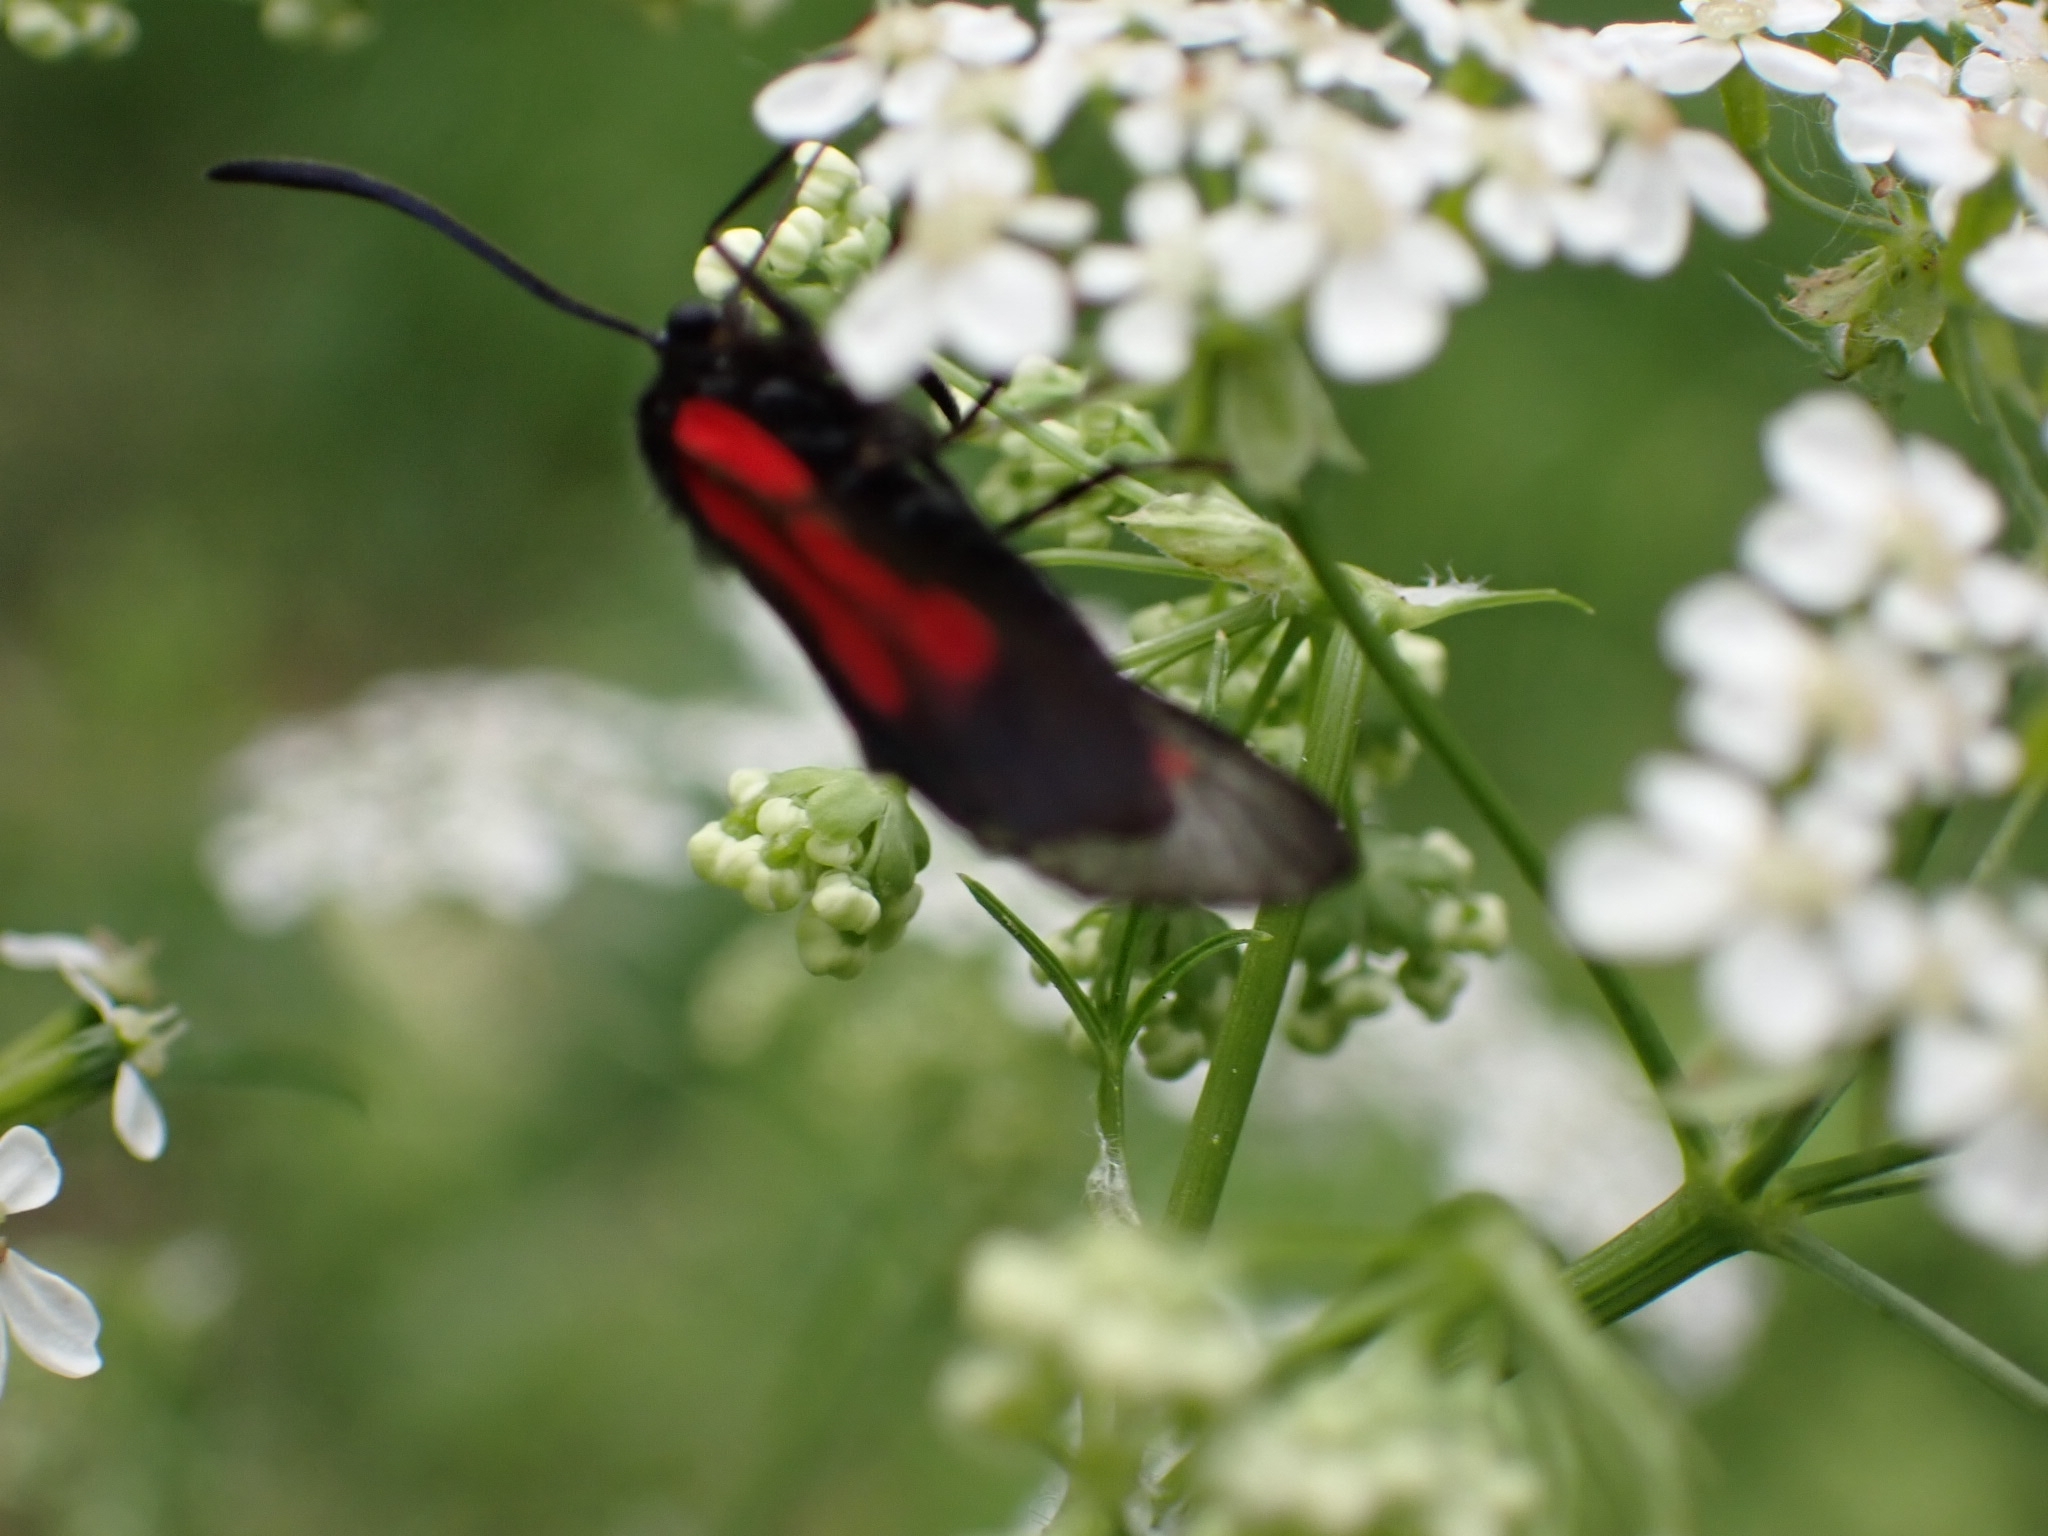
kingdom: Animalia
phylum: Arthropoda
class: Insecta
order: Lepidoptera
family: Zygaenidae
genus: Zygaena
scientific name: Zygaena osterodensis
